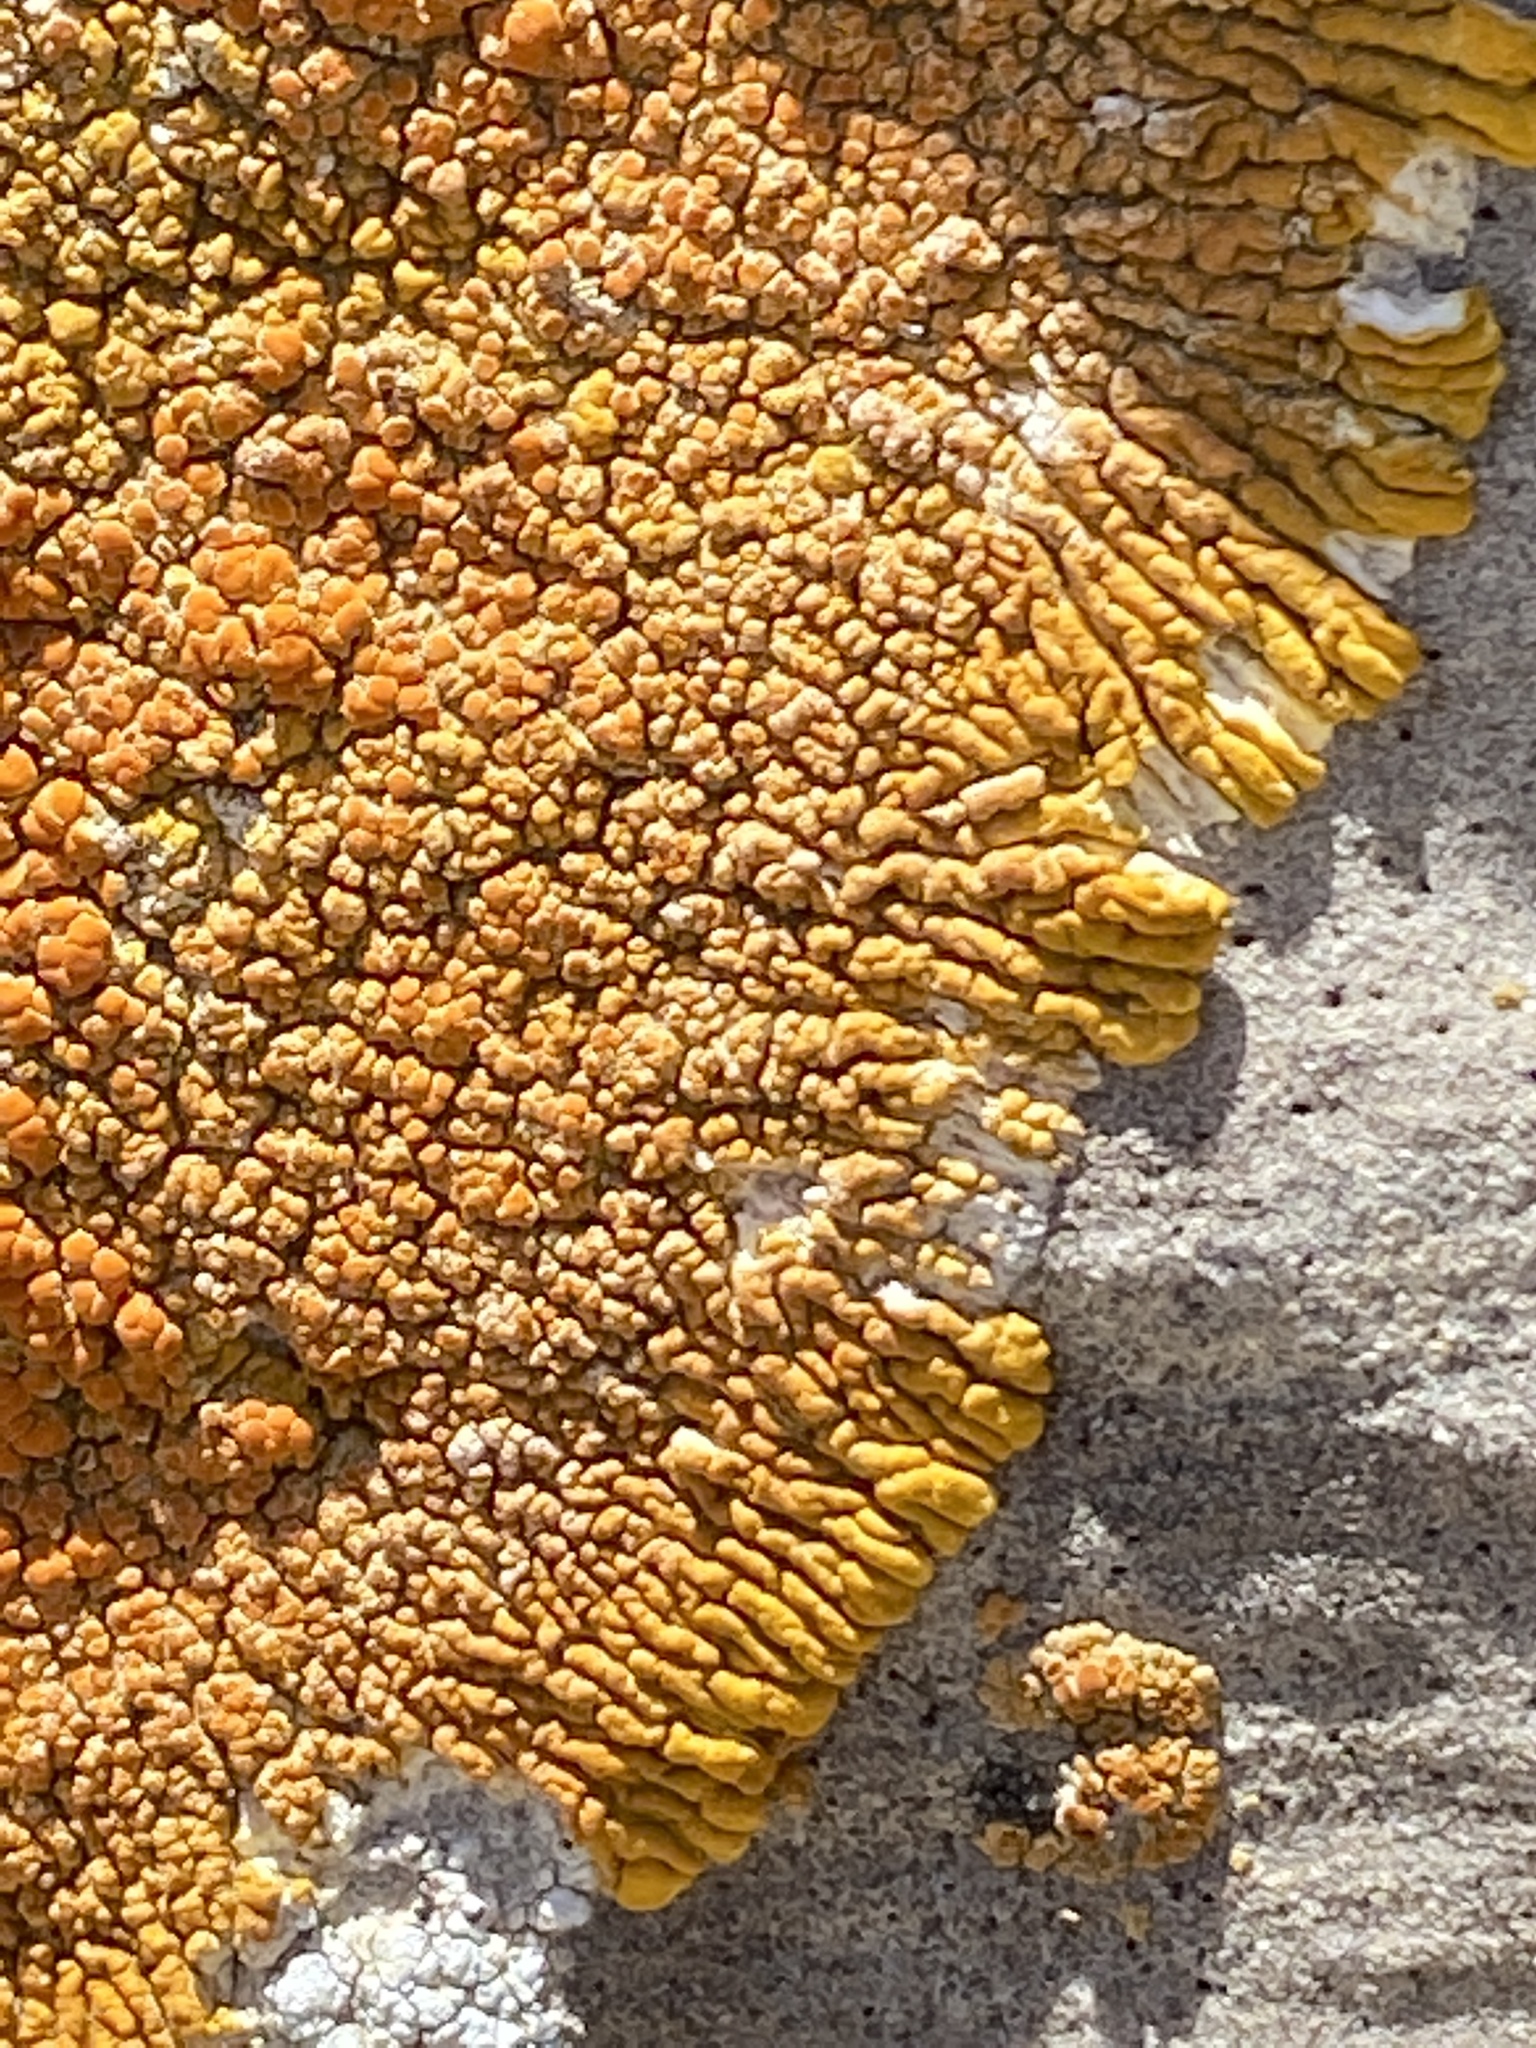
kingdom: Fungi
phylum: Ascomycota
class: Lecanoromycetes
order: Teloschistales
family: Teloschistaceae
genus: Xanthoria
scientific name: Xanthoria elegans
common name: Elegant sunburst lichen
